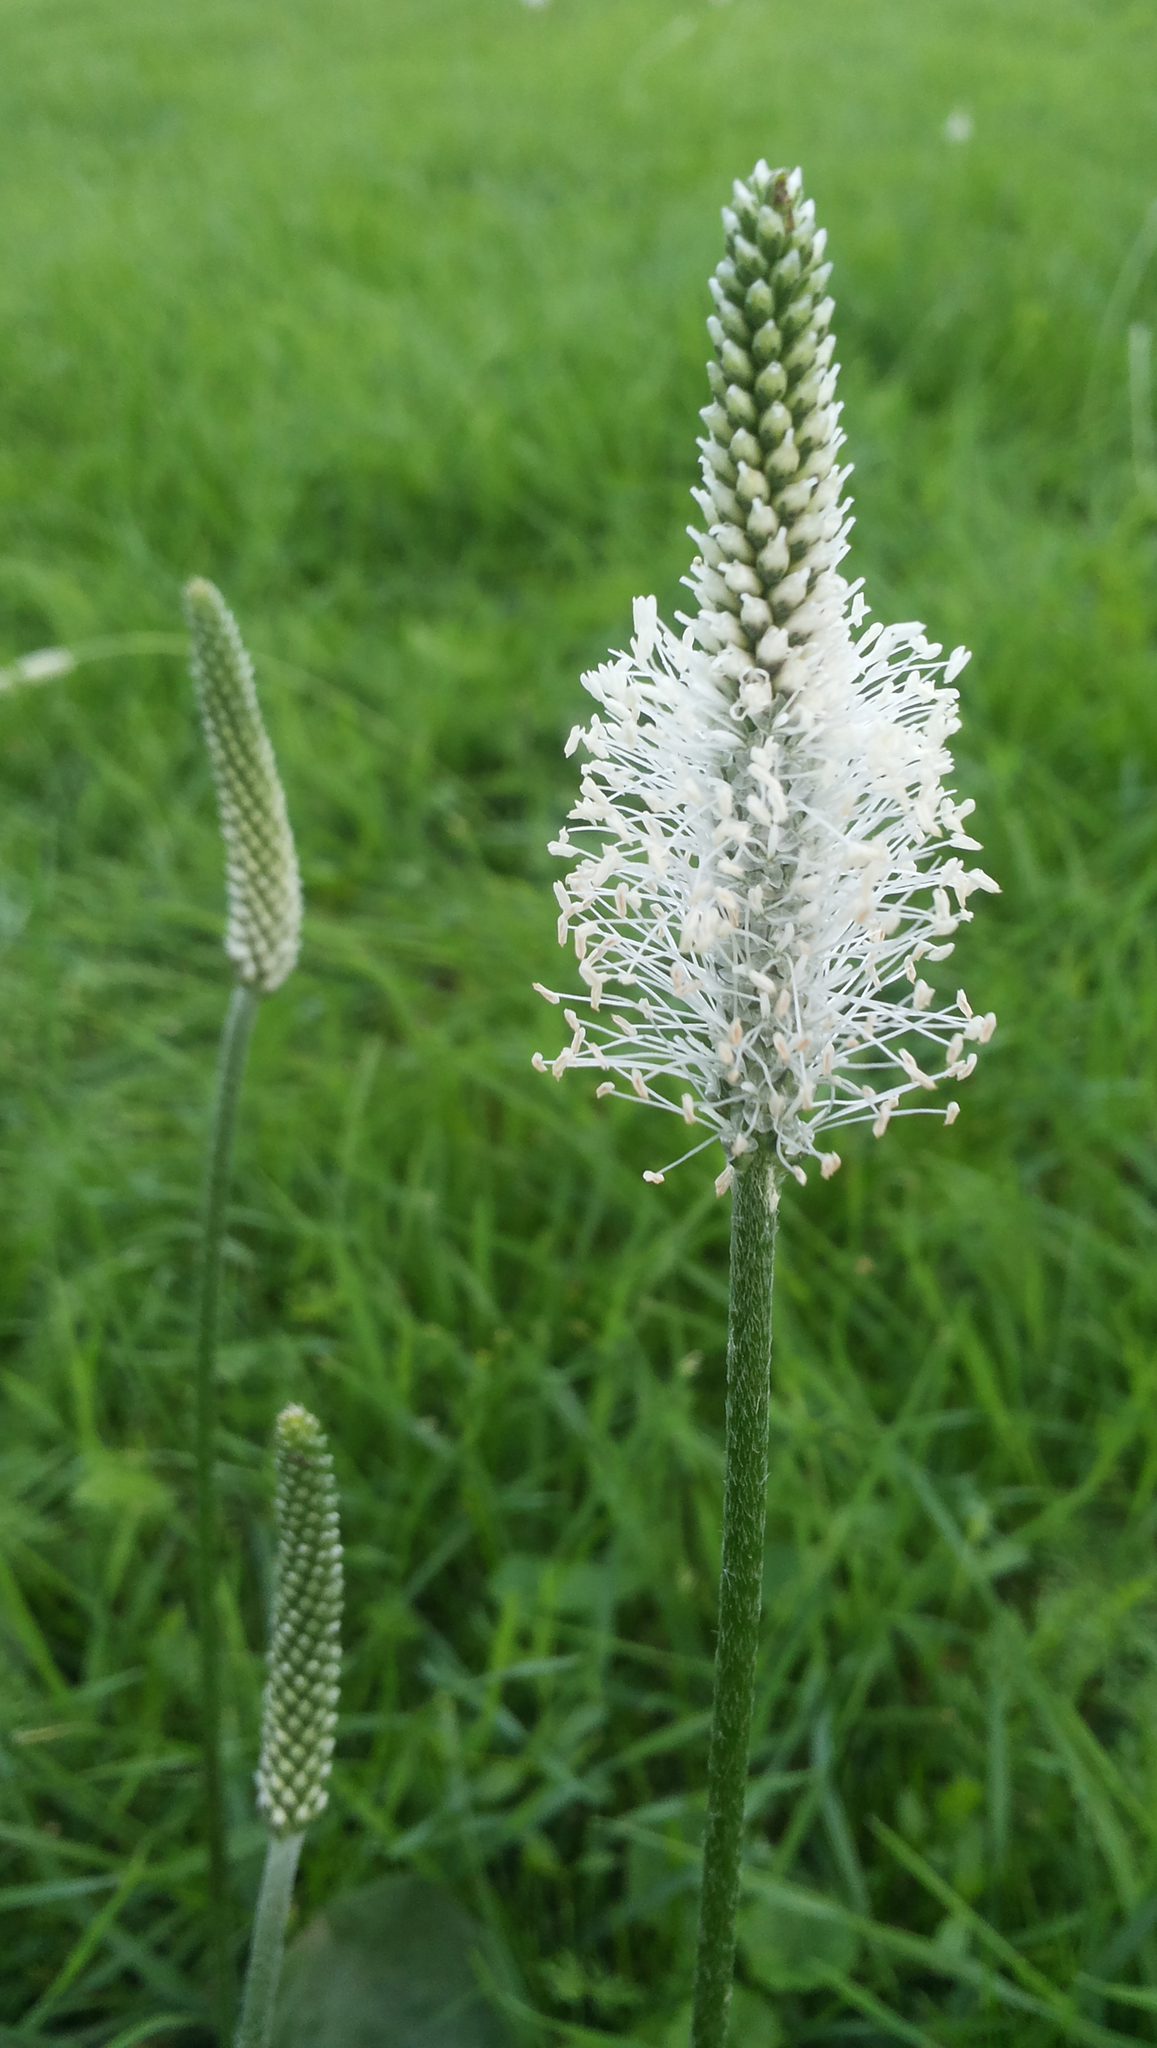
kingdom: Plantae
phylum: Tracheophyta
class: Magnoliopsida
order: Lamiales
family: Plantaginaceae
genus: Plantago
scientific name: Plantago media
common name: Hoary plantain
